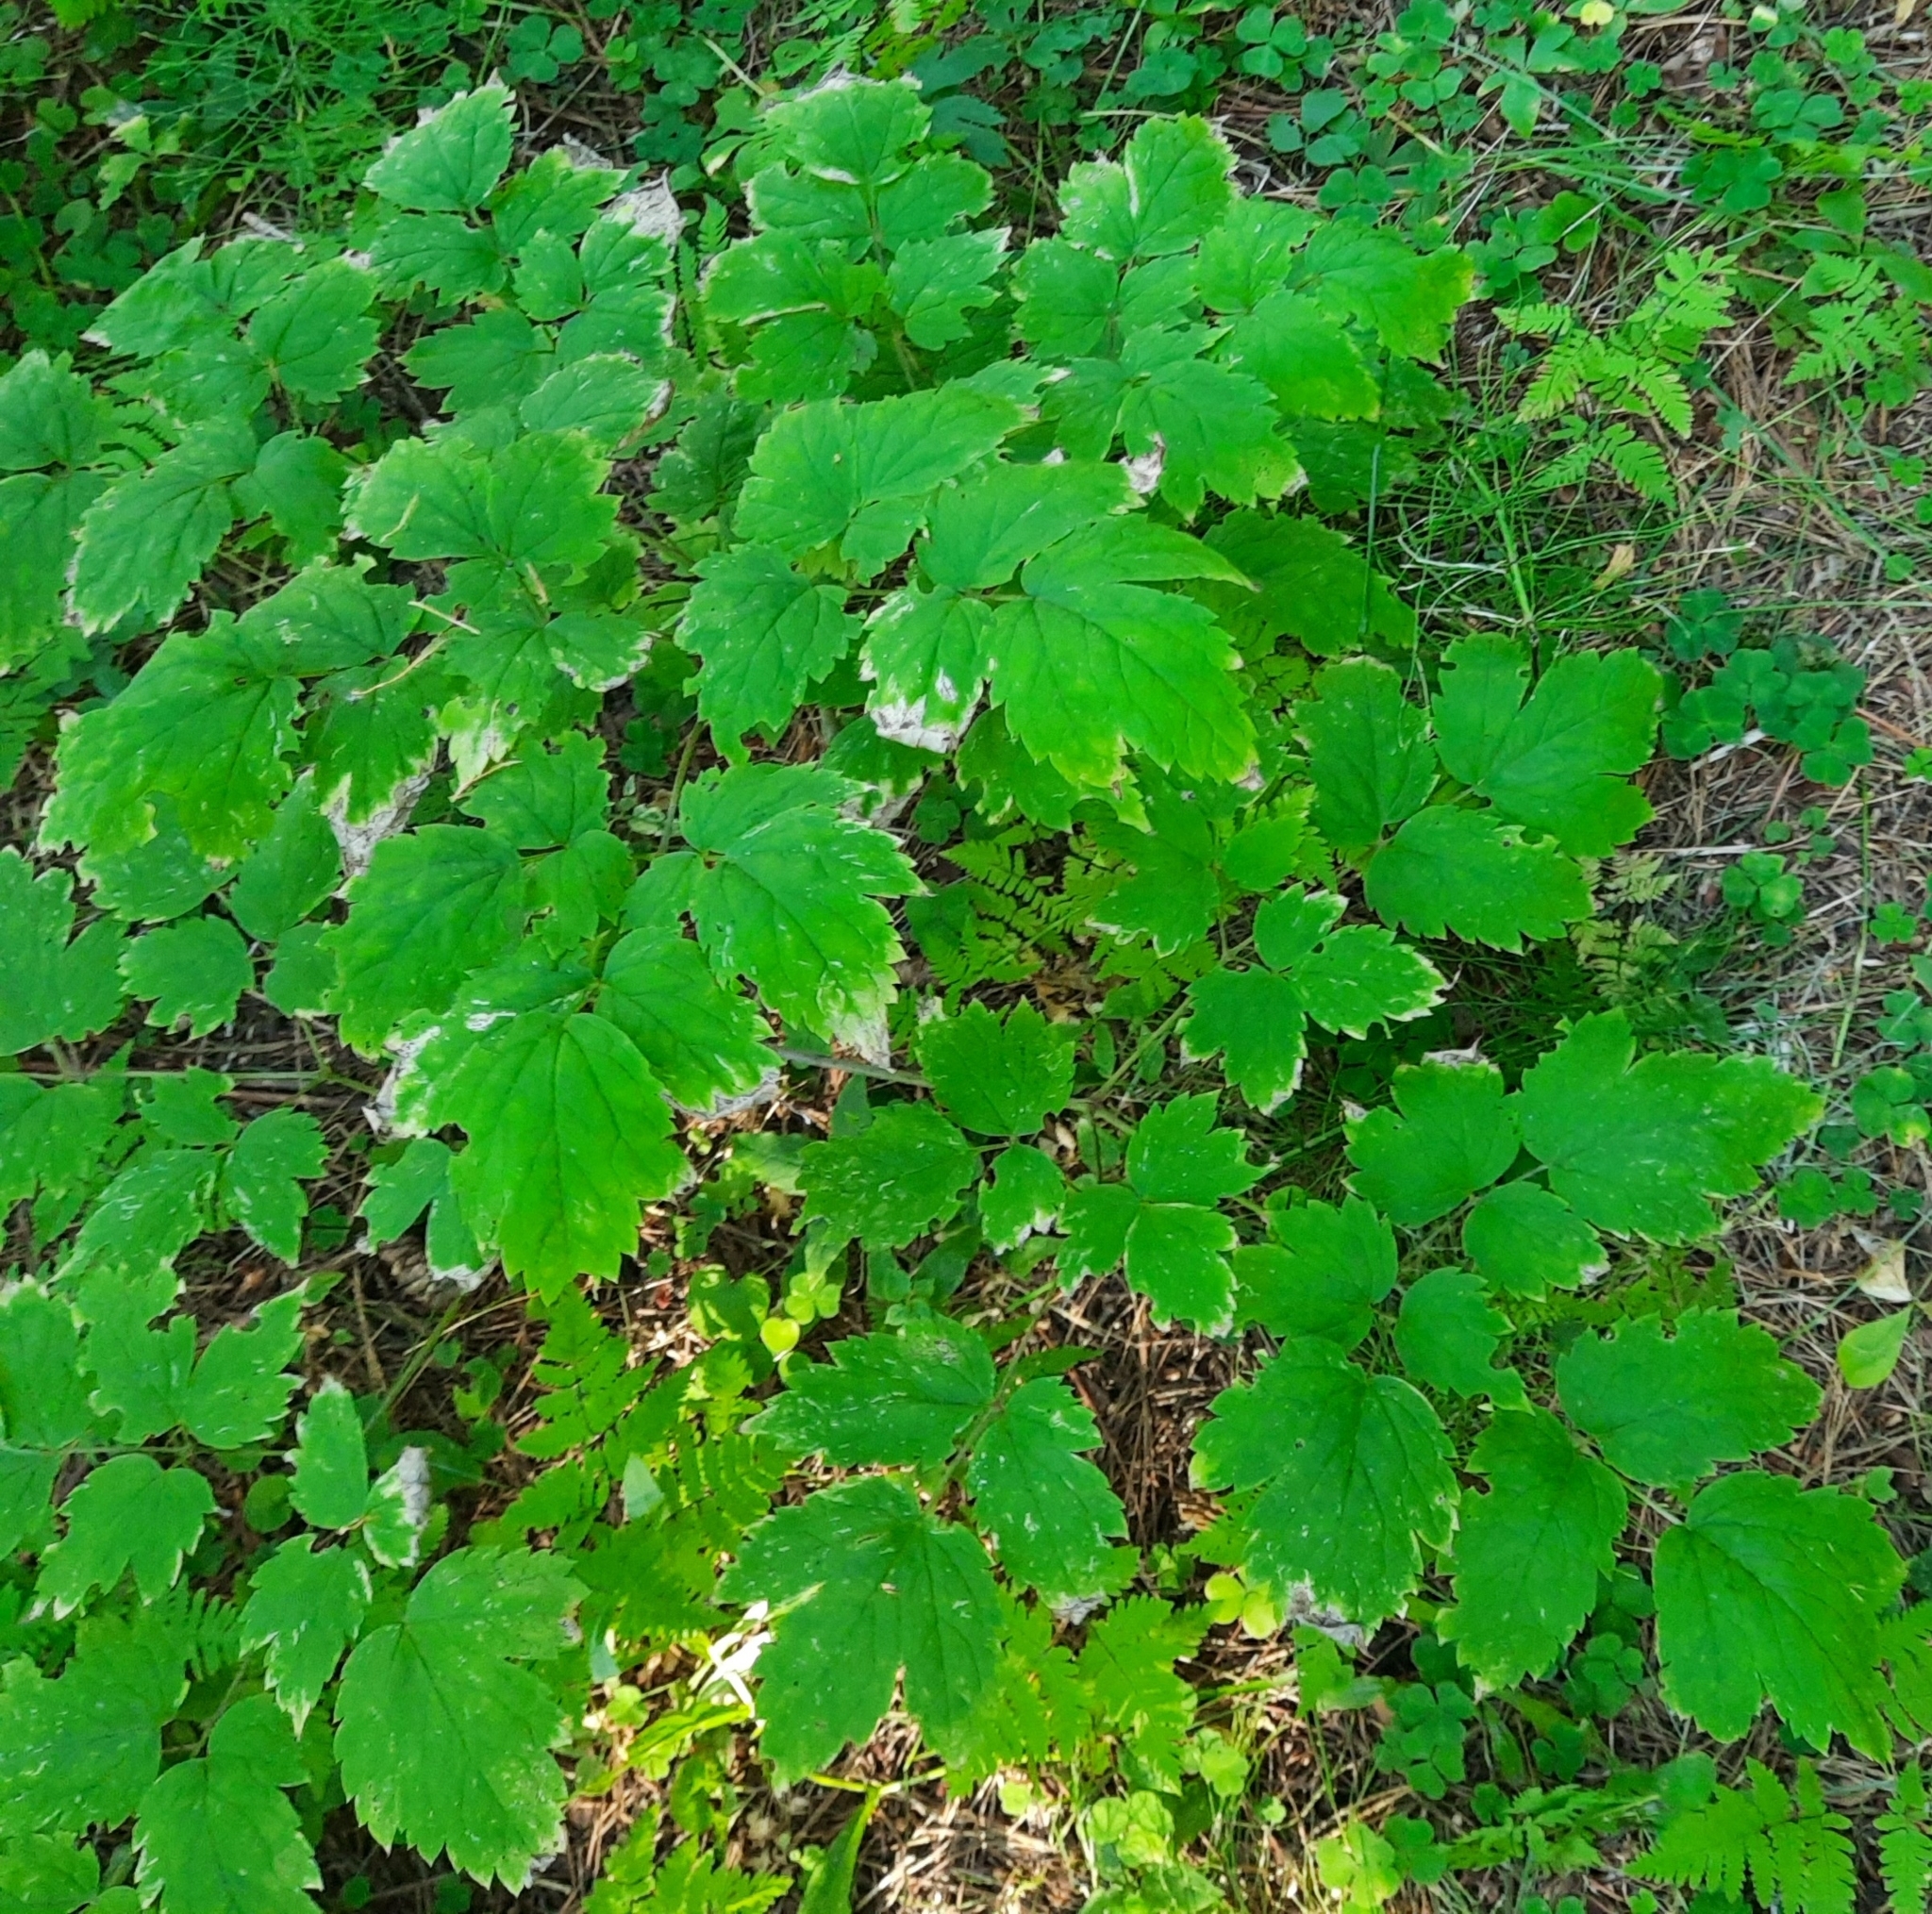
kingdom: Plantae
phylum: Tracheophyta
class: Magnoliopsida
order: Ranunculales
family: Ranunculaceae
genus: Actaea
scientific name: Actaea erythrocarpa
